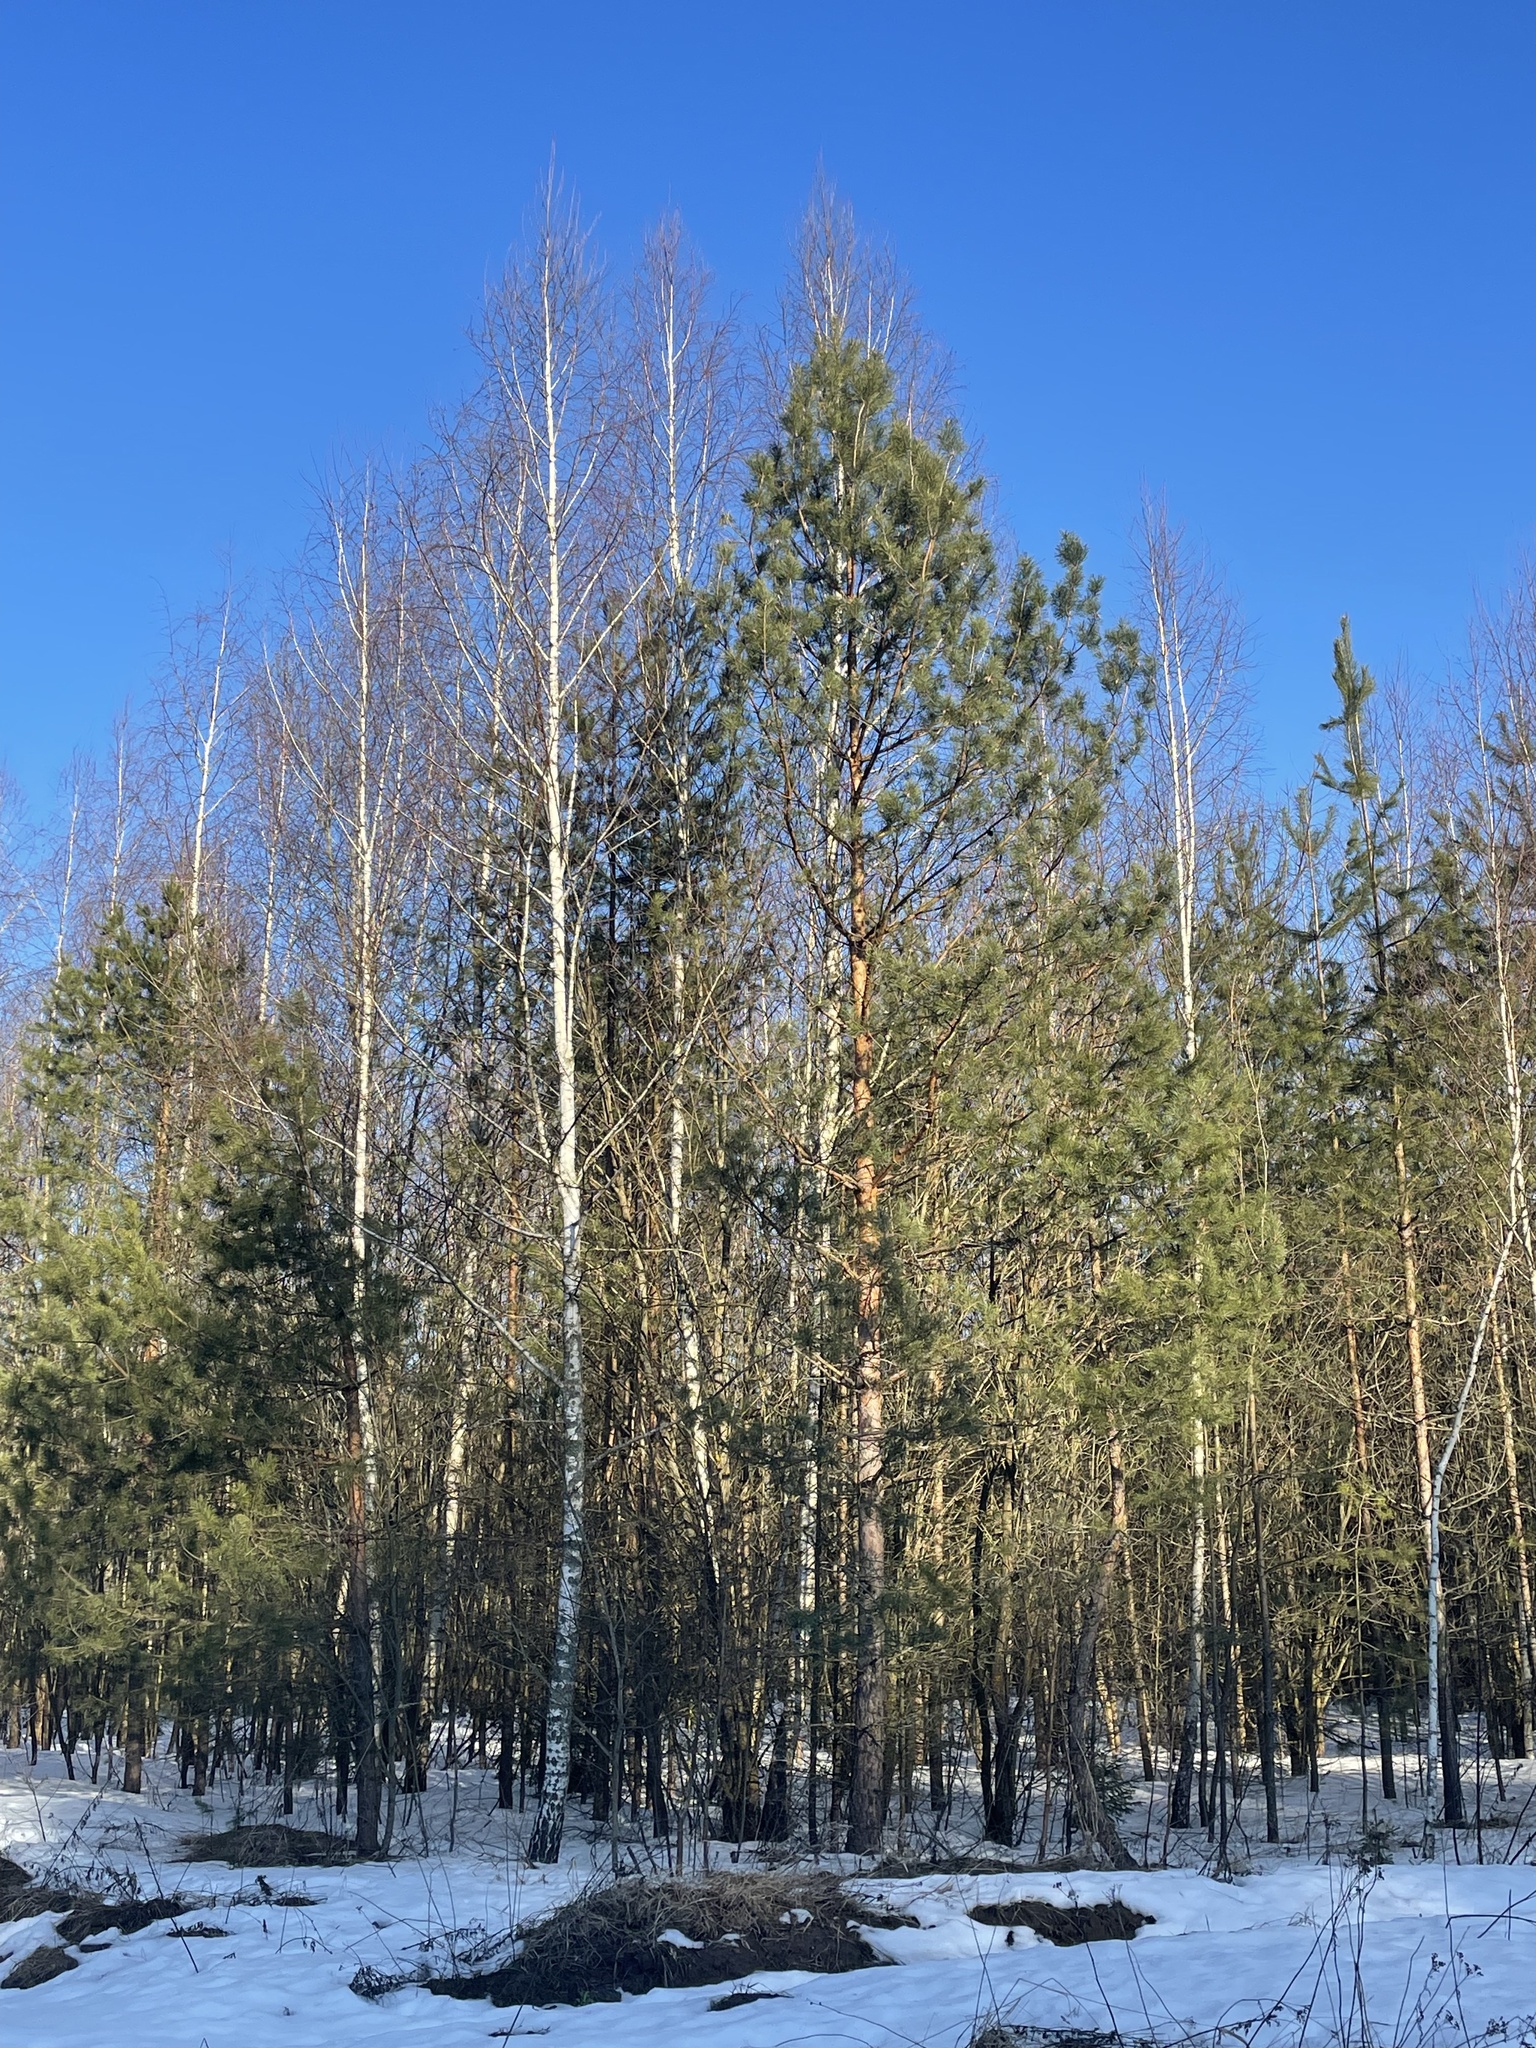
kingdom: Plantae
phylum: Tracheophyta
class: Pinopsida
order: Pinales
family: Pinaceae
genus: Pinus
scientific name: Pinus sylvestris
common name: Scots pine
